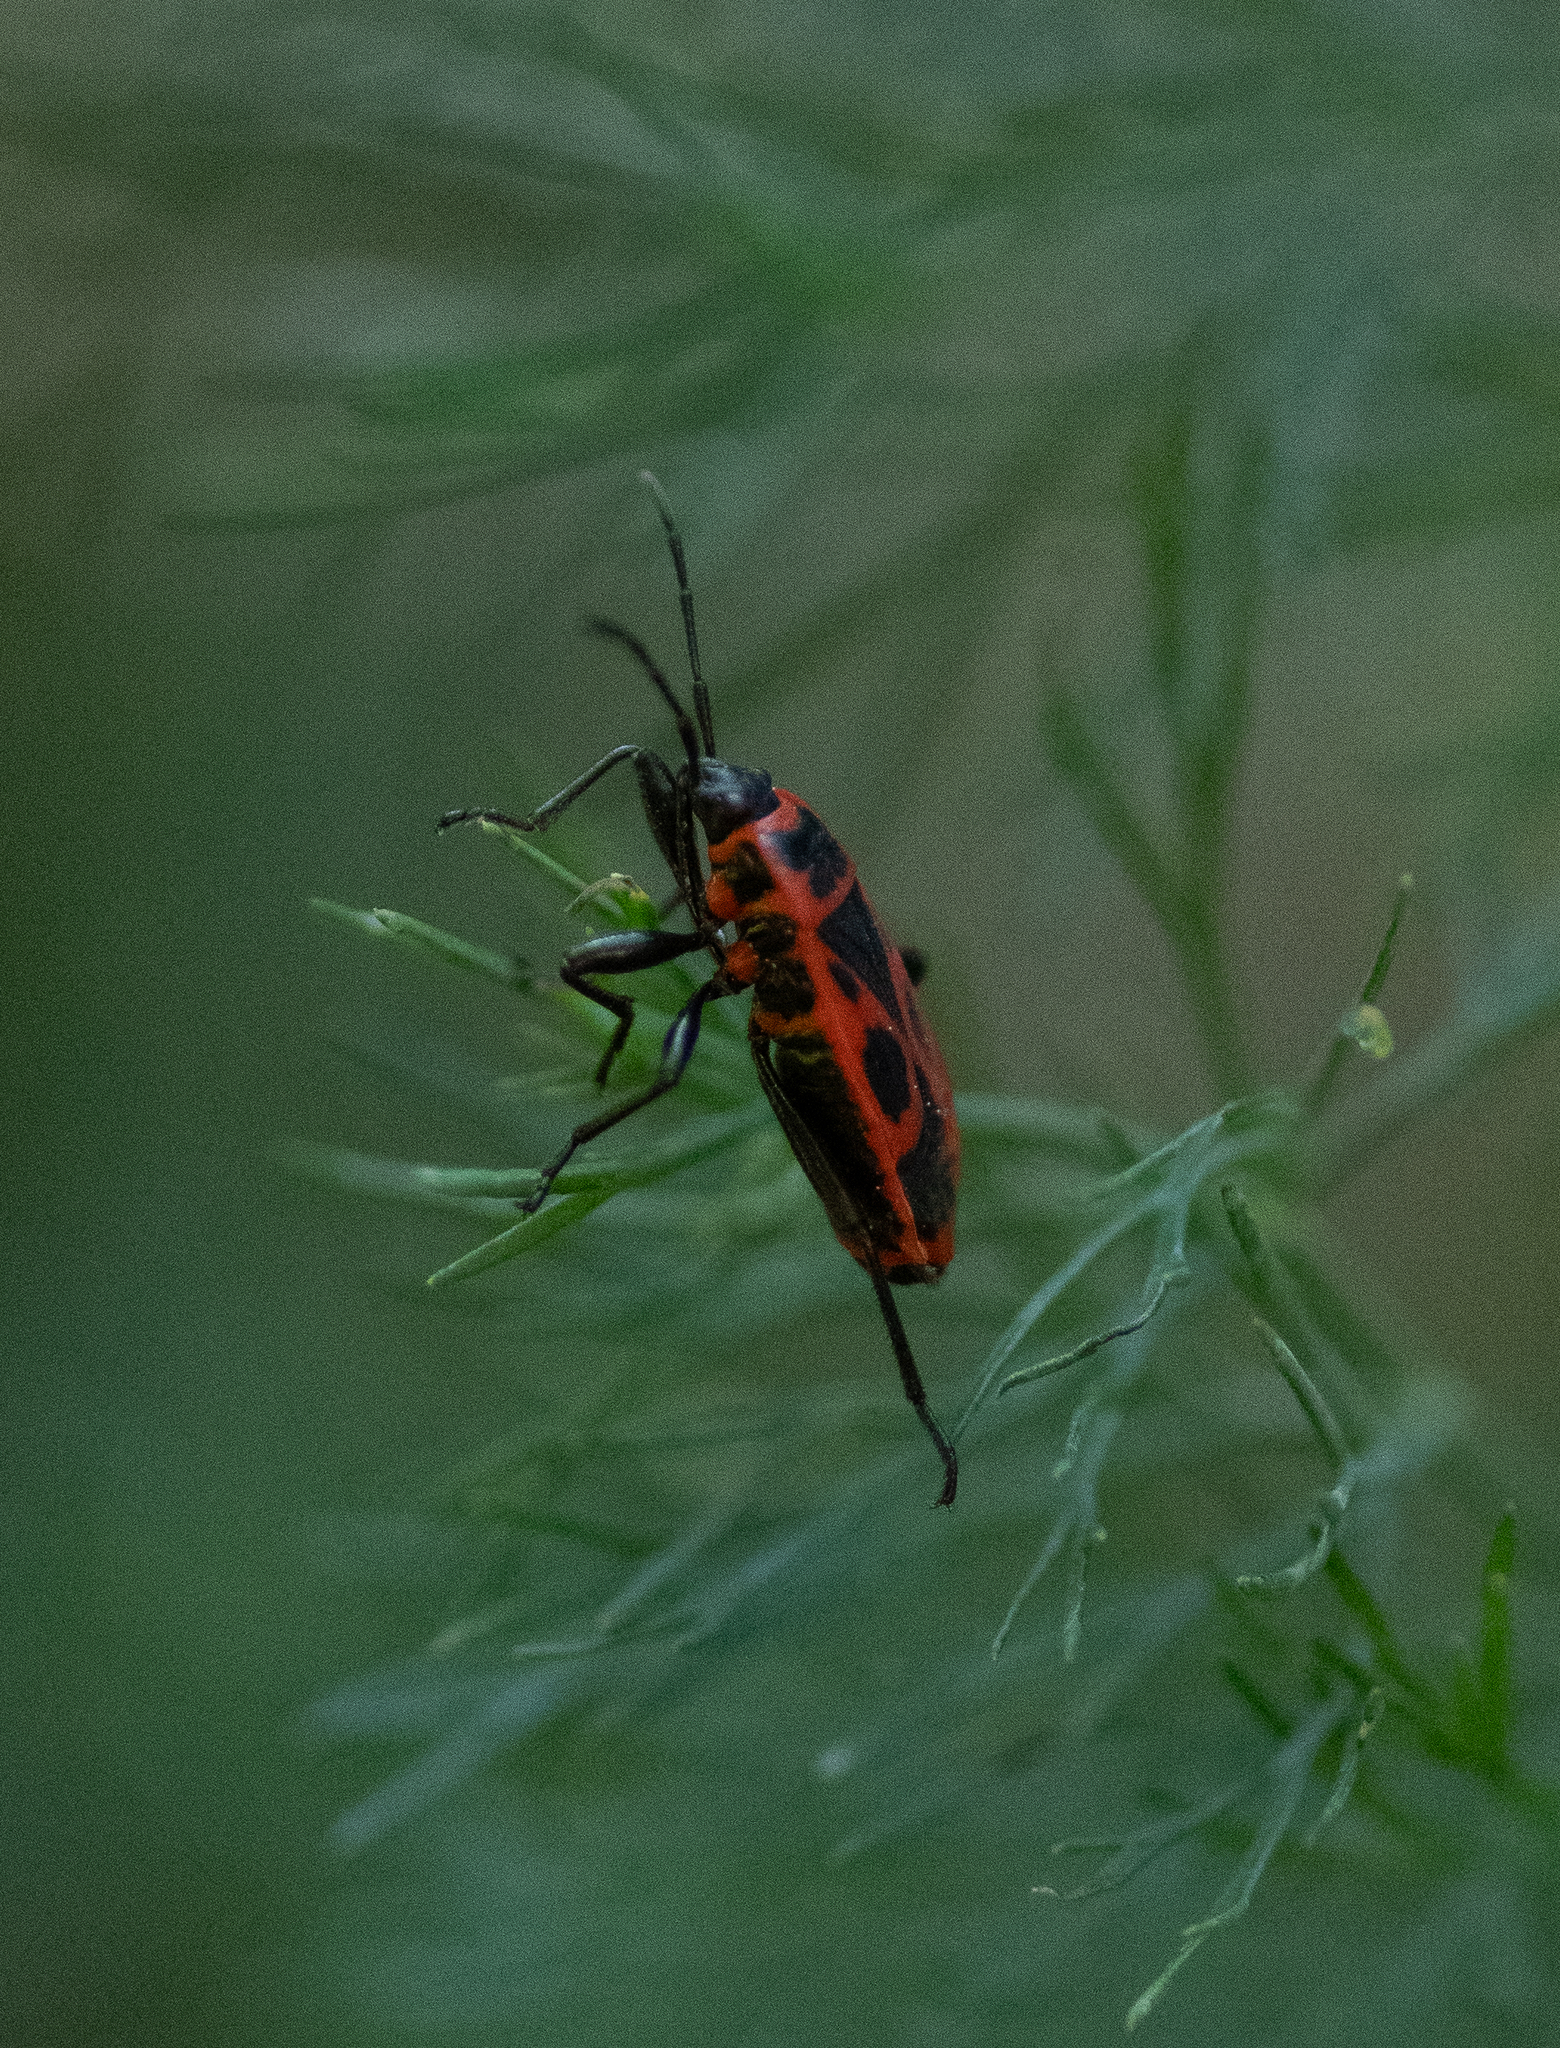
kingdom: Animalia
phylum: Arthropoda
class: Insecta
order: Hemiptera
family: Pyrrhocoridae
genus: Pyrrhocoris
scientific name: Pyrrhocoris apterus
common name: Firebug
